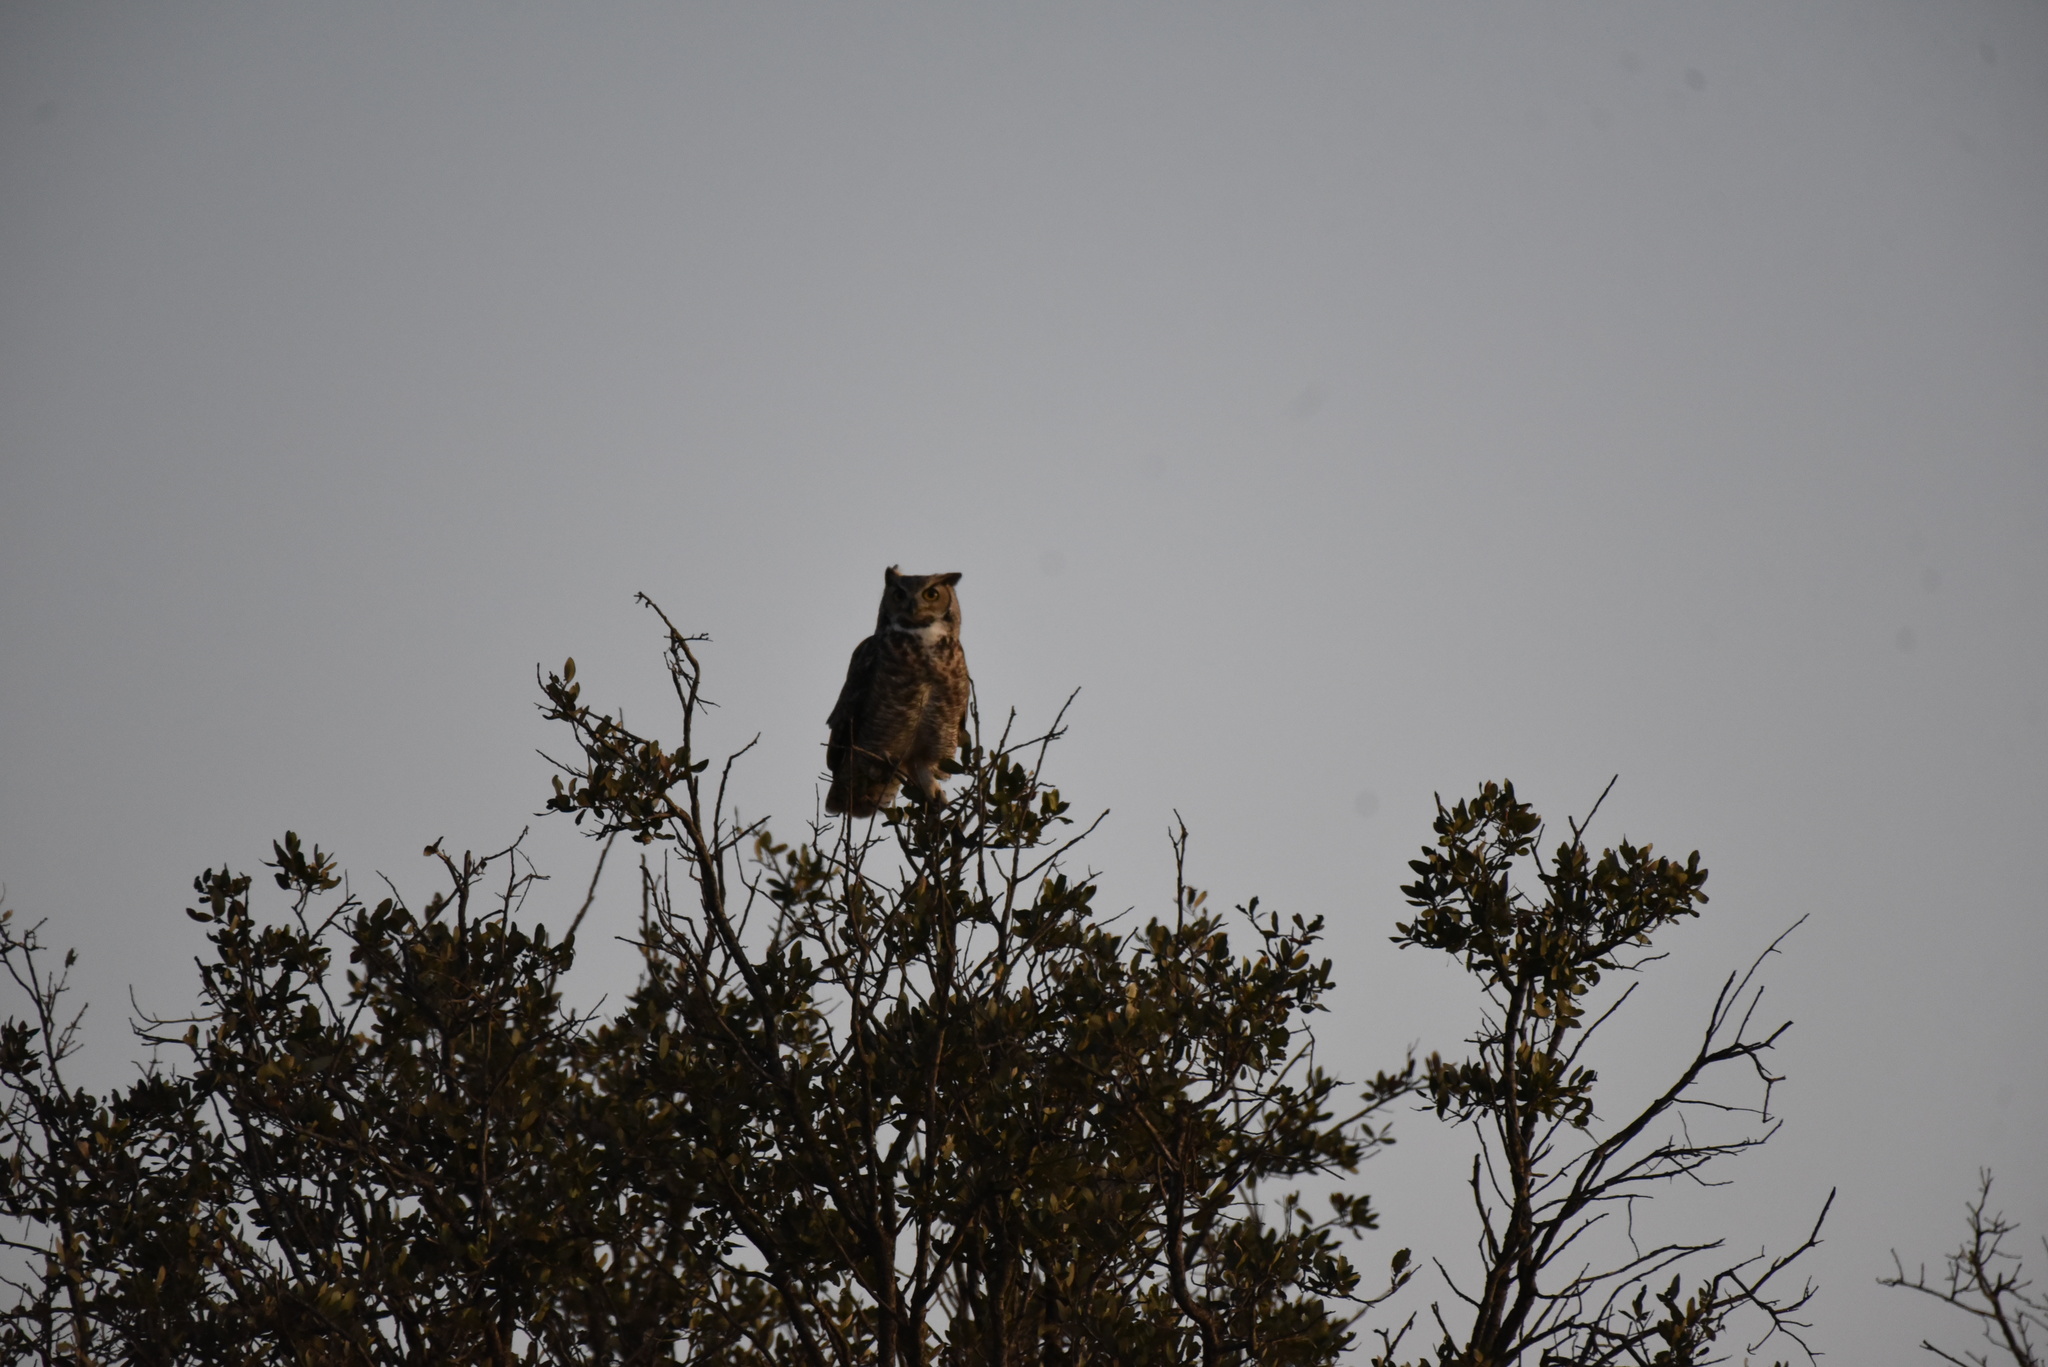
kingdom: Animalia
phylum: Chordata
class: Aves
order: Strigiformes
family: Strigidae
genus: Bubo
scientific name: Bubo virginianus
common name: Great horned owl
